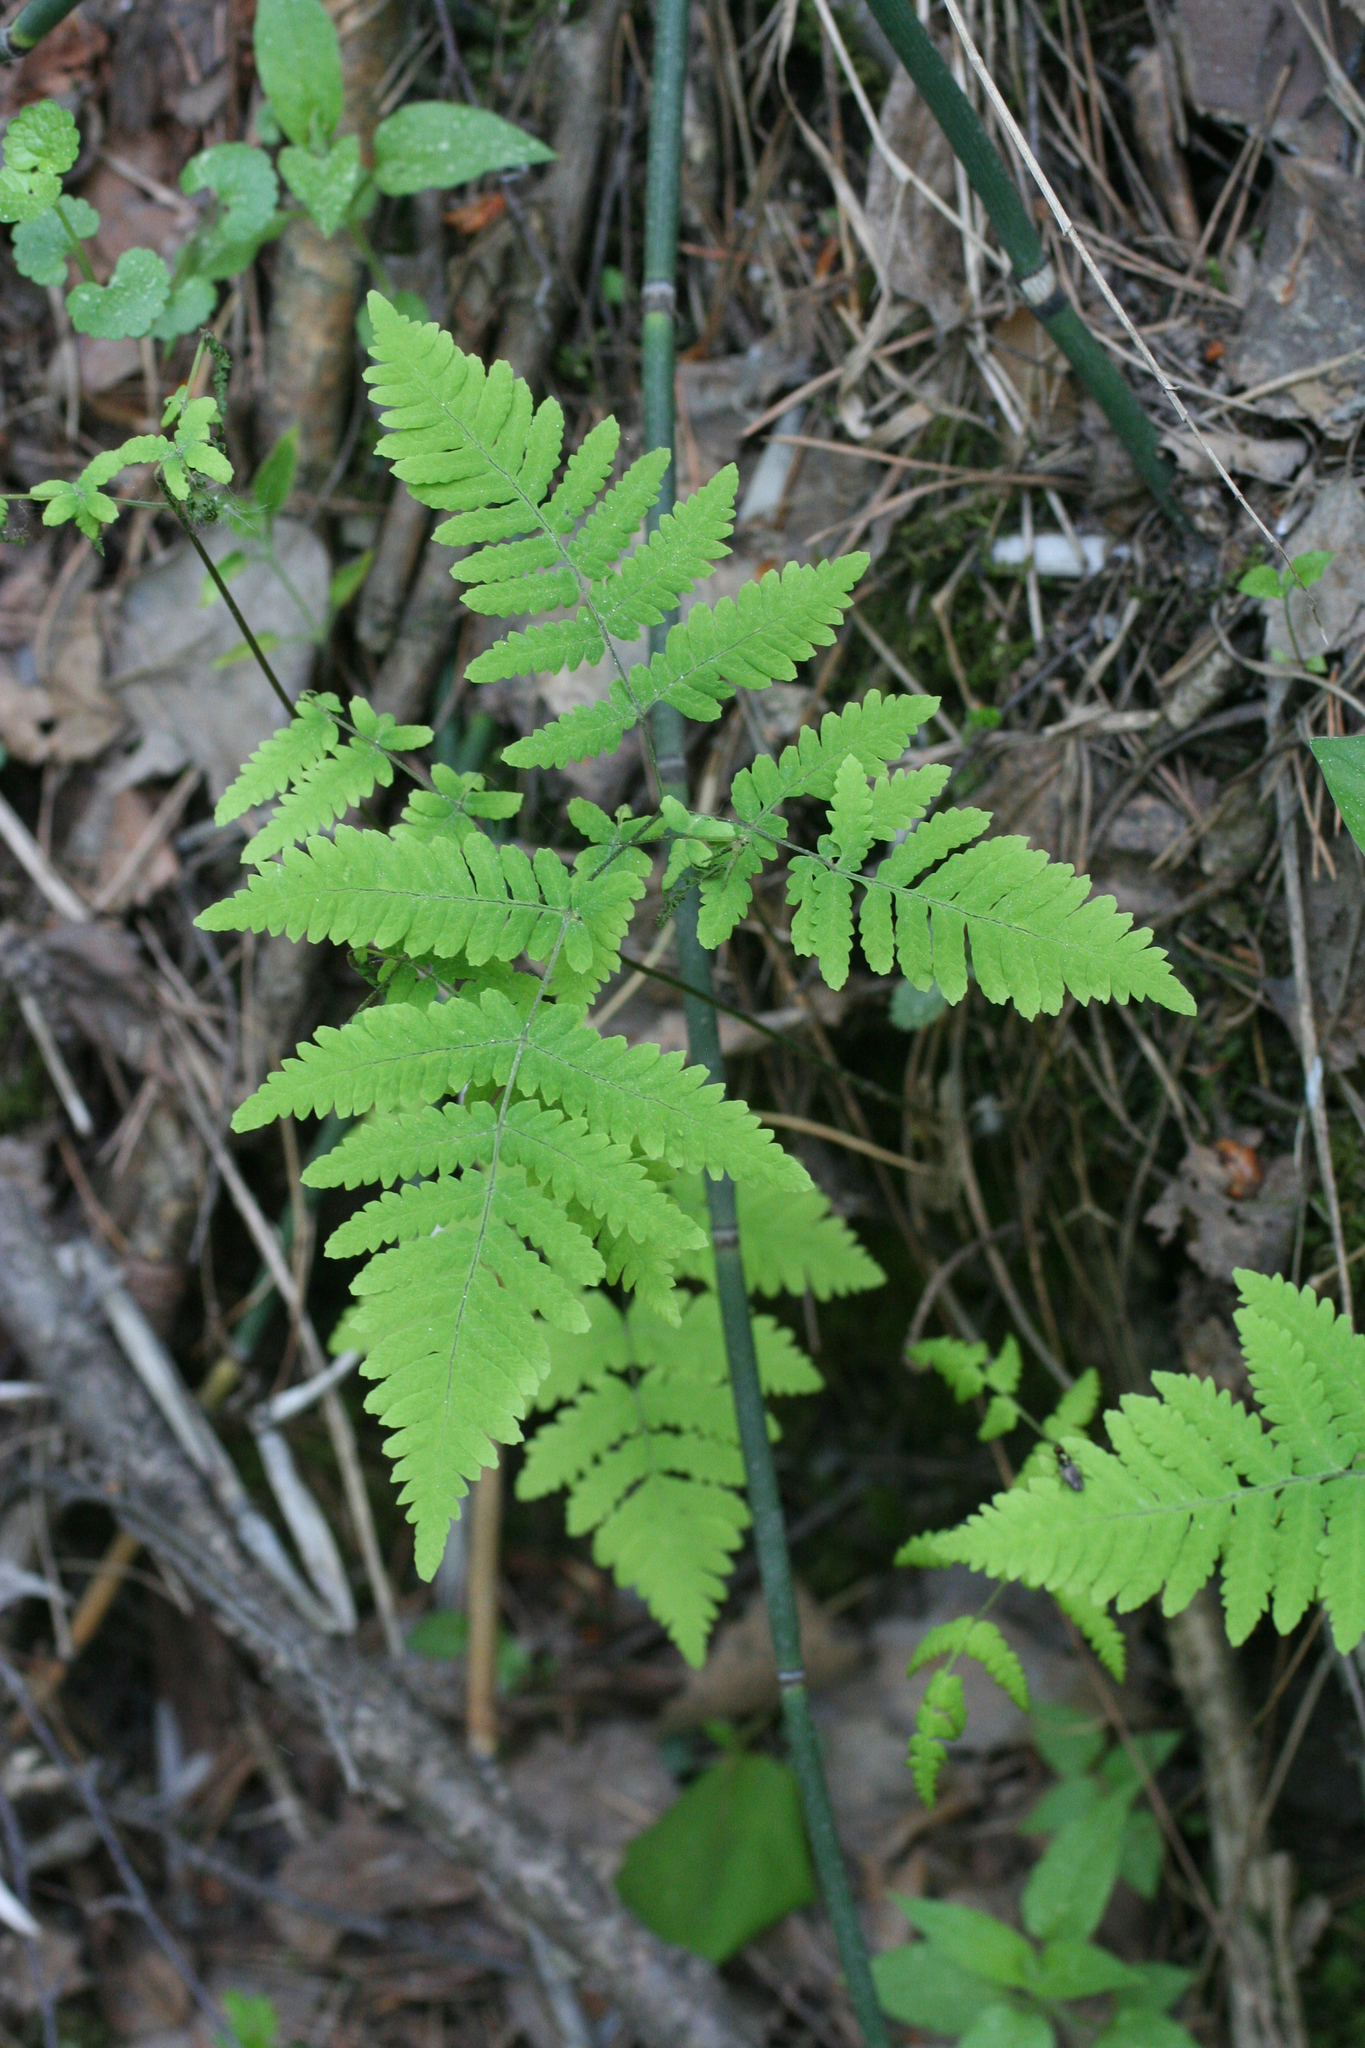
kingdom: Plantae
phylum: Tracheophyta
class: Polypodiopsida
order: Polypodiales
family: Cystopteridaceae
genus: Gymnocarpium
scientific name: Gymnocarpium dryopteris
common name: Oak fern
